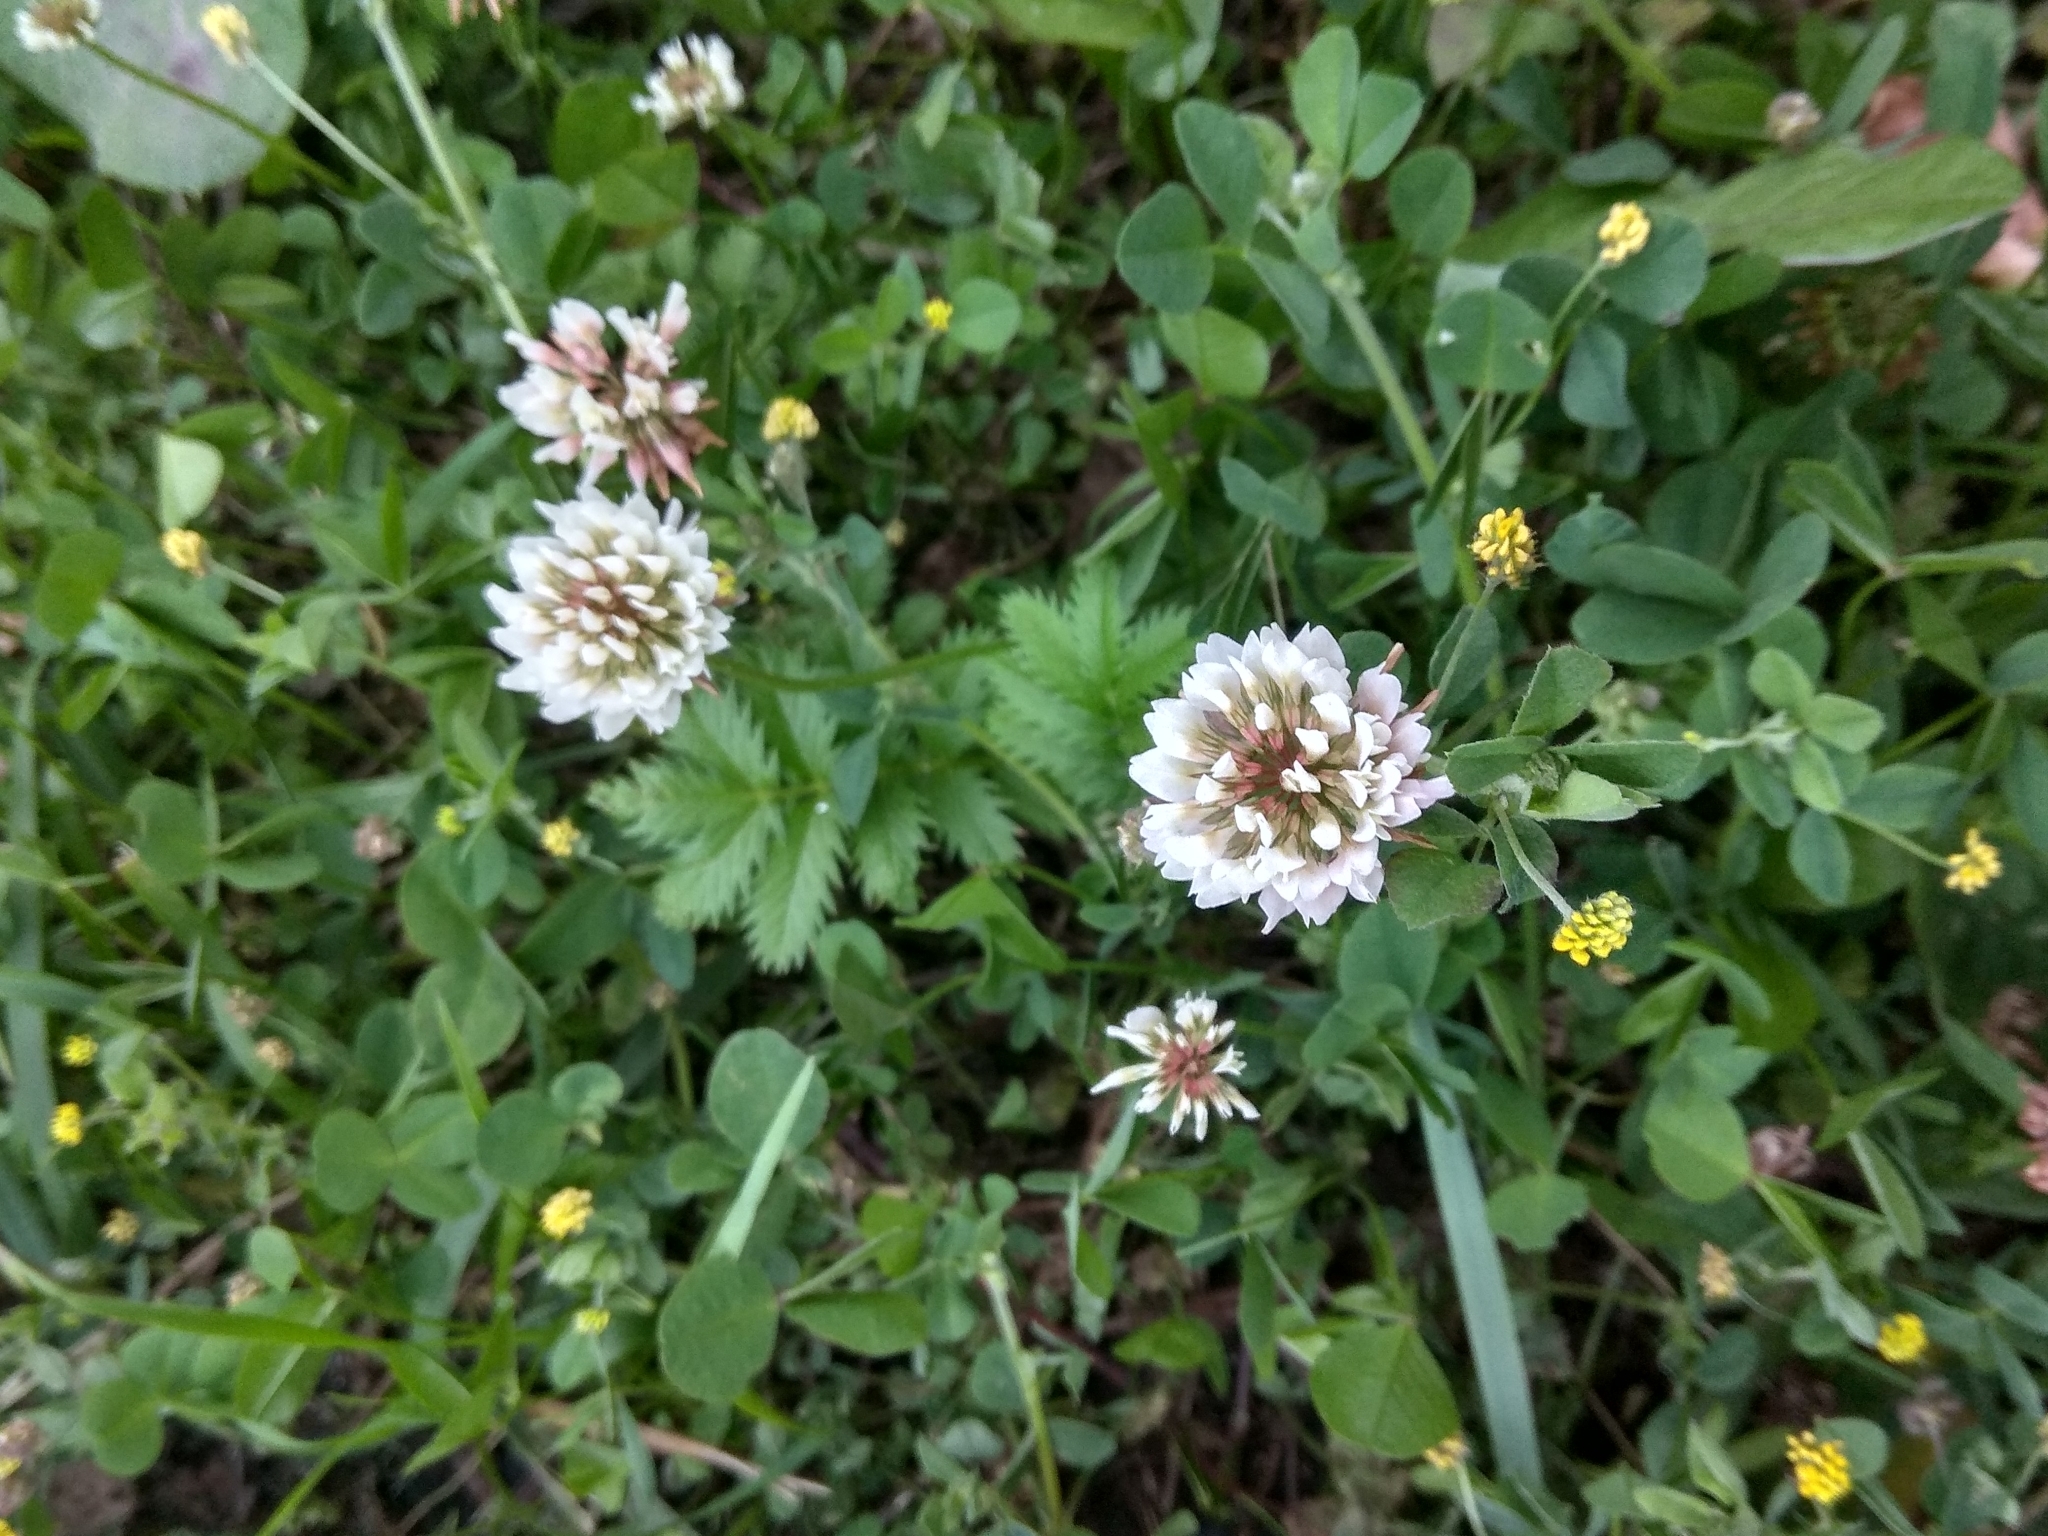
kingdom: Plantae
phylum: Tracheophyta
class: Magnoliopsida
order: Fabales
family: Fabaceae
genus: Trifolium
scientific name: Trifolium repens
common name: White clover
